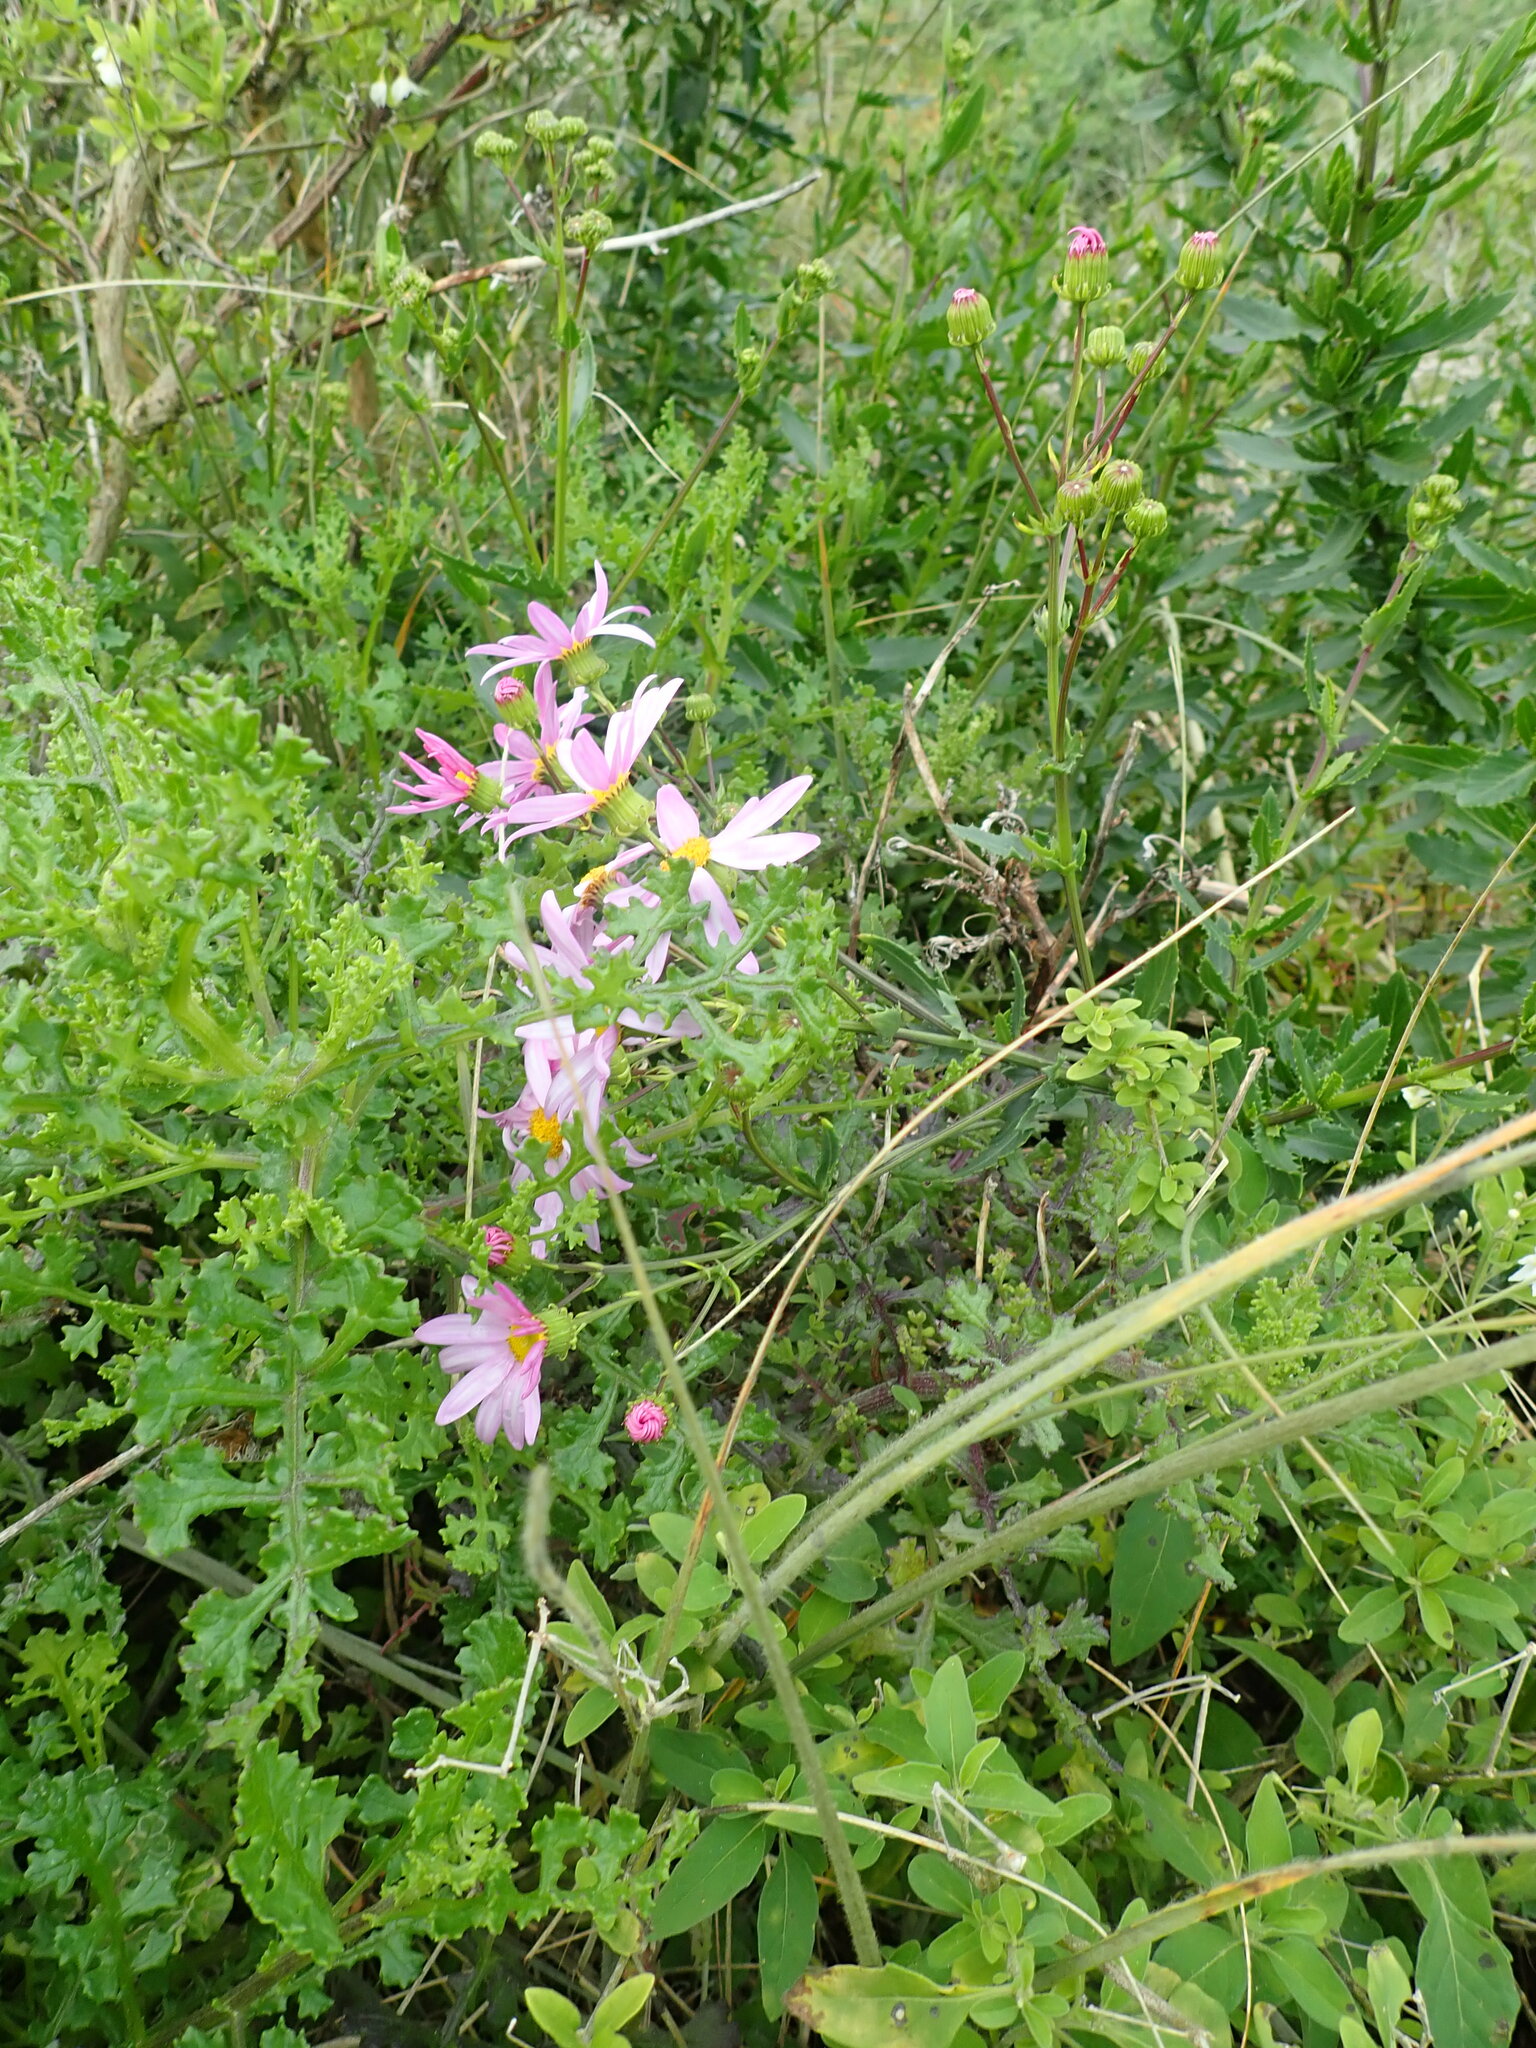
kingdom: Plantae
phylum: Tracheophyta
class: Magnoliopsida
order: Asterales
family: Asteraceae
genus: Senecio
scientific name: Senecio glastifolius
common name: Woad-leaved ragwort
